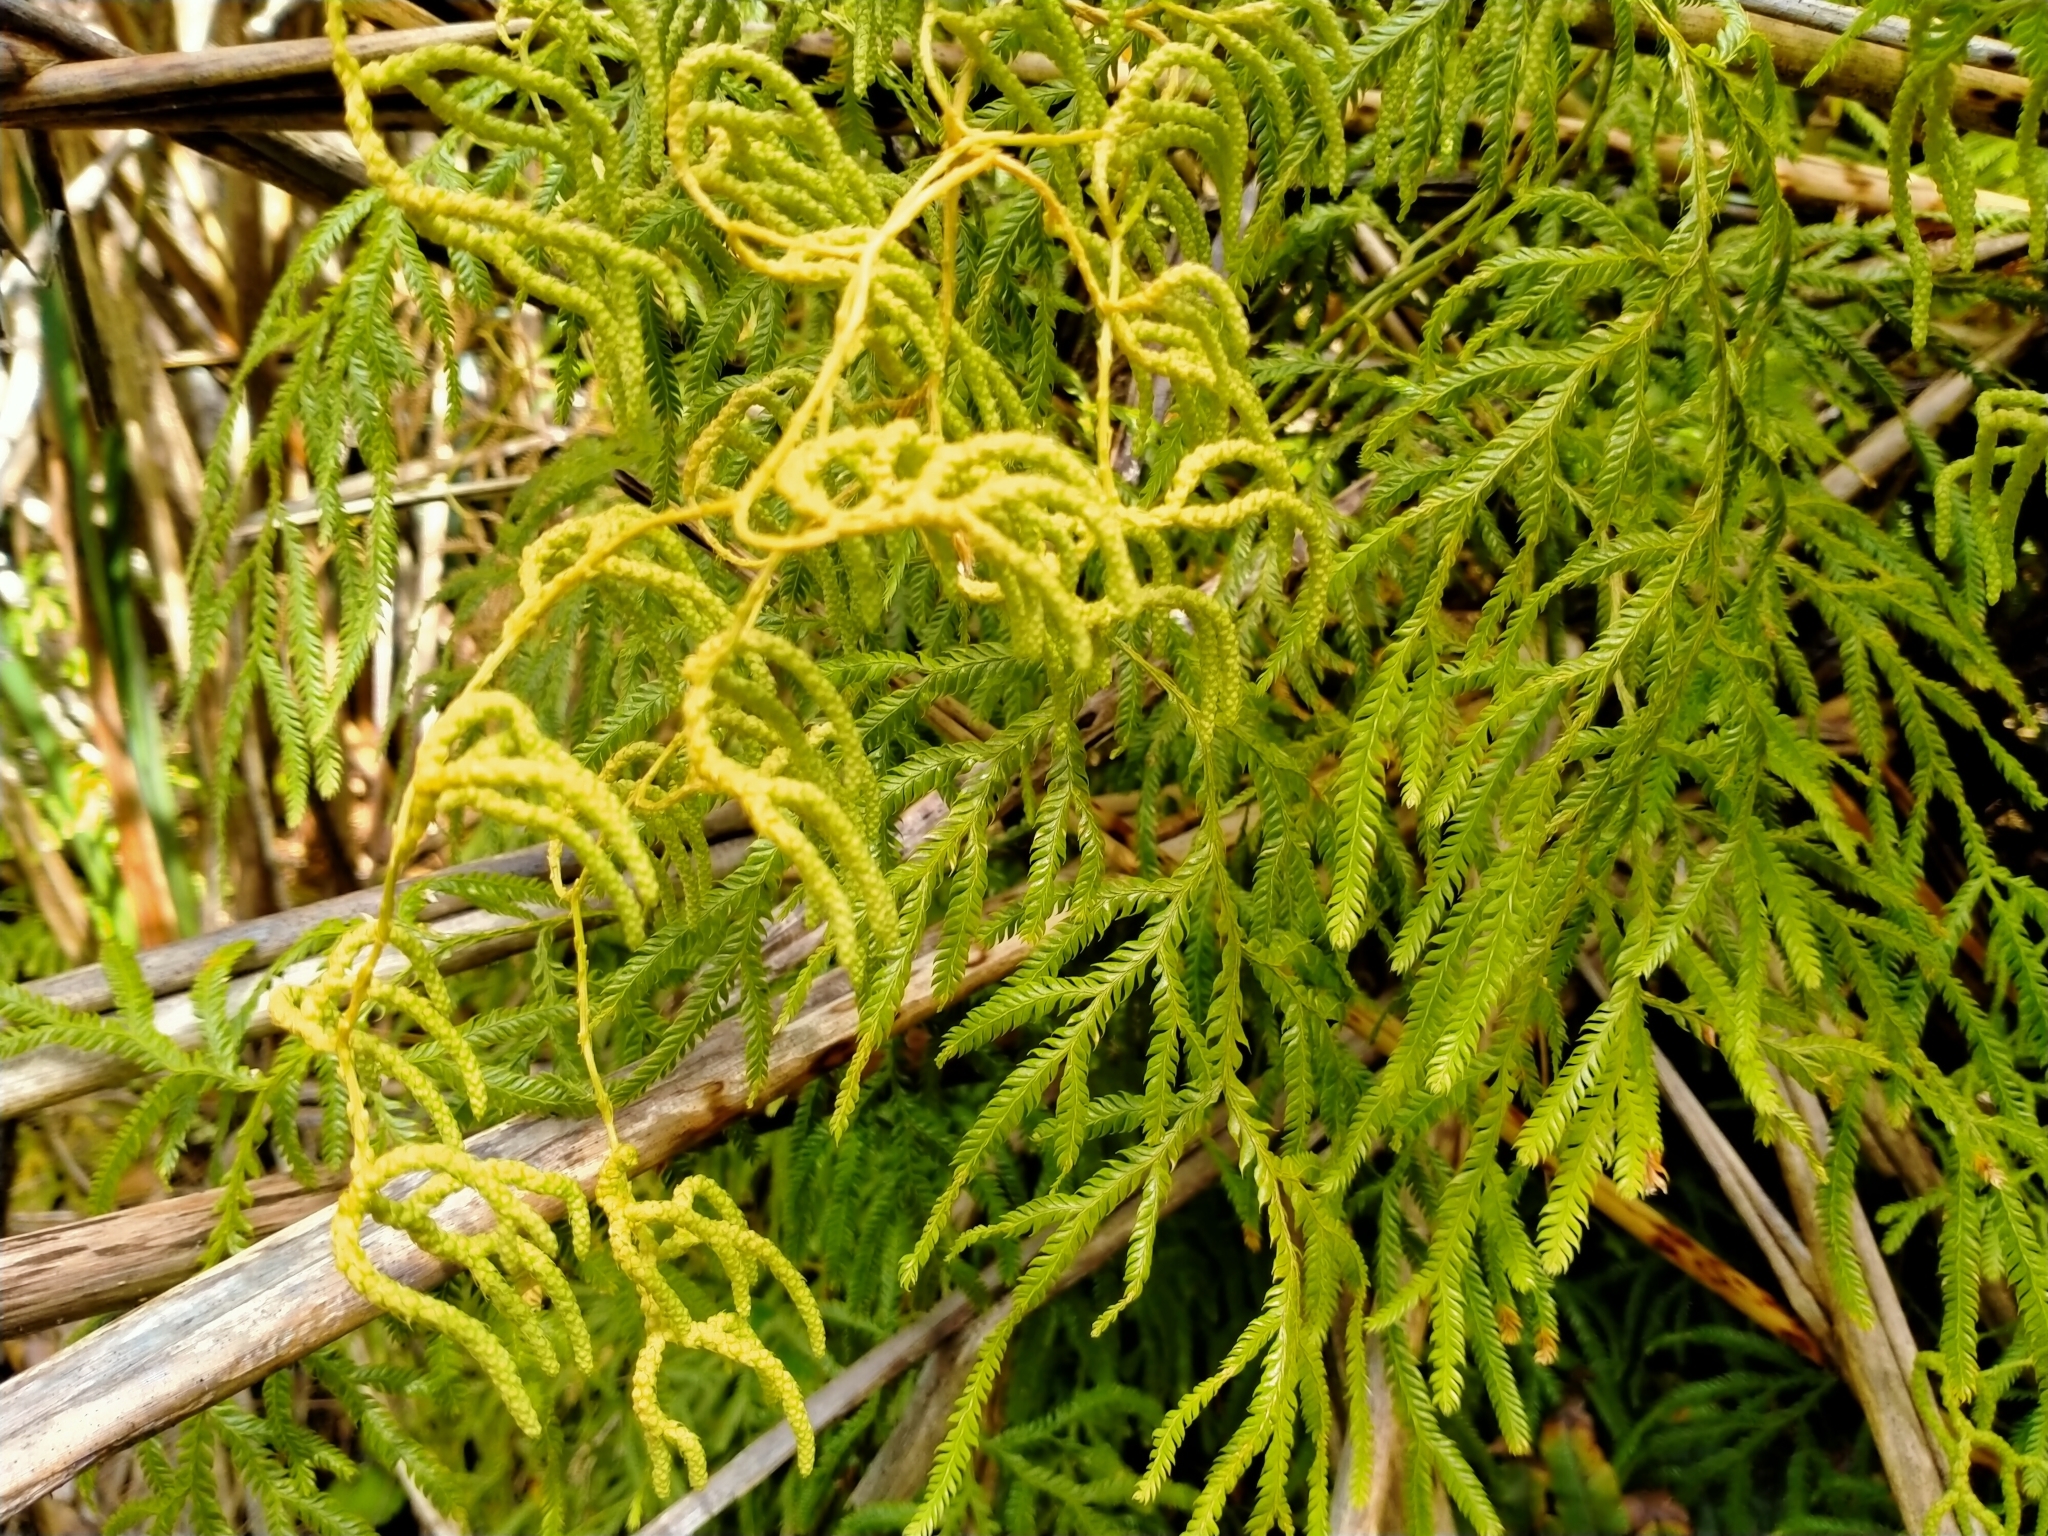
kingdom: Plantae
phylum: Tracheophyta
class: Lycopodiopsida
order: Lycopodiales
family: Lycopodiaceae
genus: Lycopodium
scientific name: Lycopodium volubile
